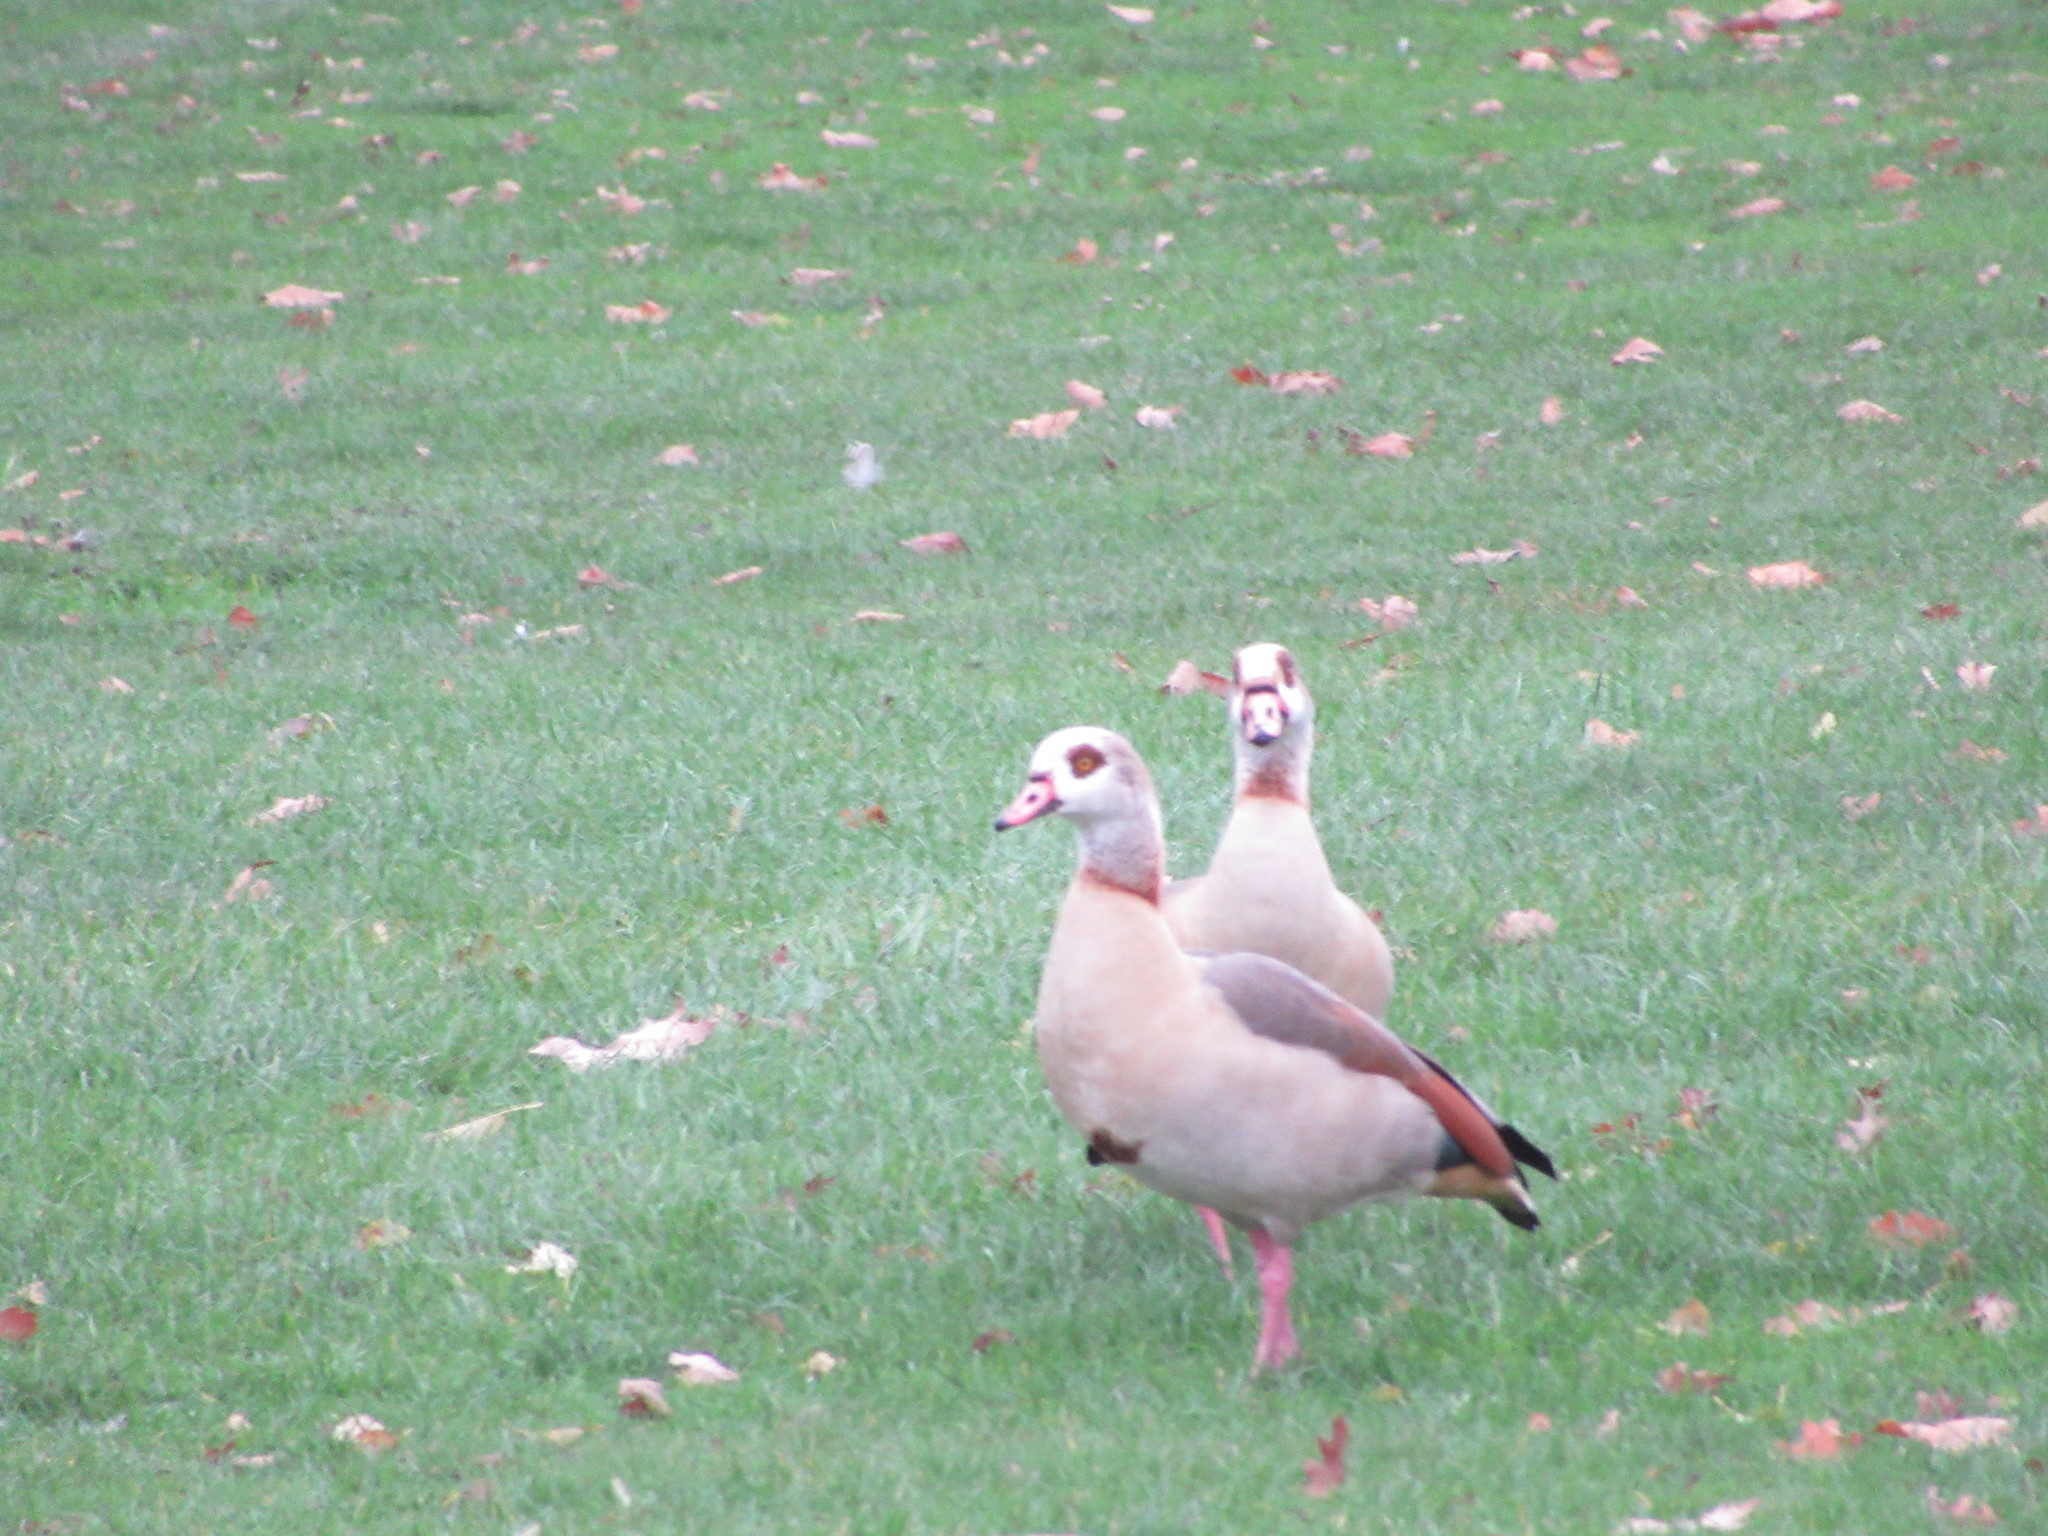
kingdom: Animalia
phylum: Chordata
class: Aves
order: Anseriformes
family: Anatidae
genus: Alopochen
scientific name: Alopochen aegyptiaca
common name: Egyptian goose
